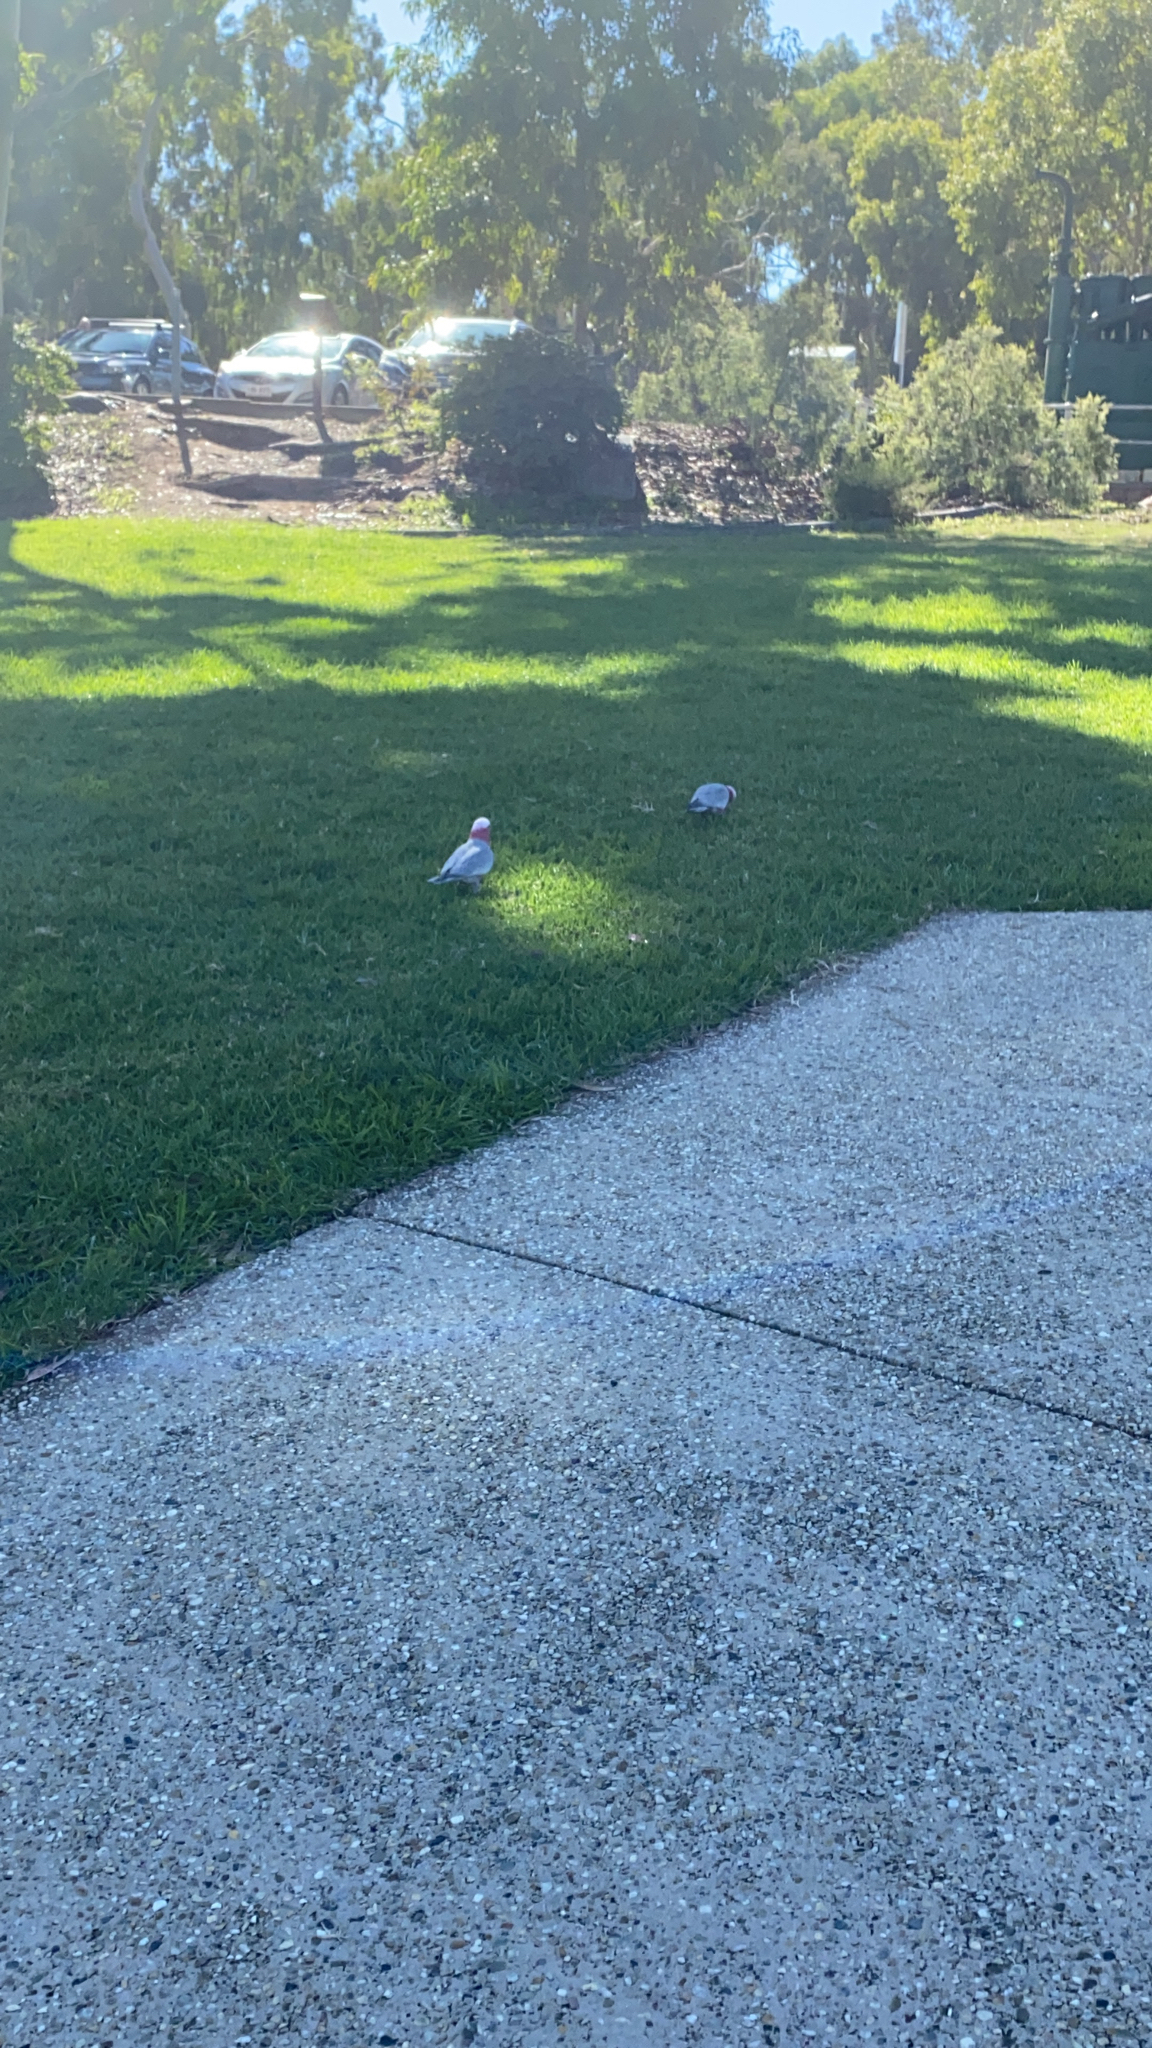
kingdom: Animalia
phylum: Chordata
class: Aves
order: Psittaciformes
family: Psittacidae
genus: Eolophus
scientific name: Eolophus roseicapilla
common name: Galah
